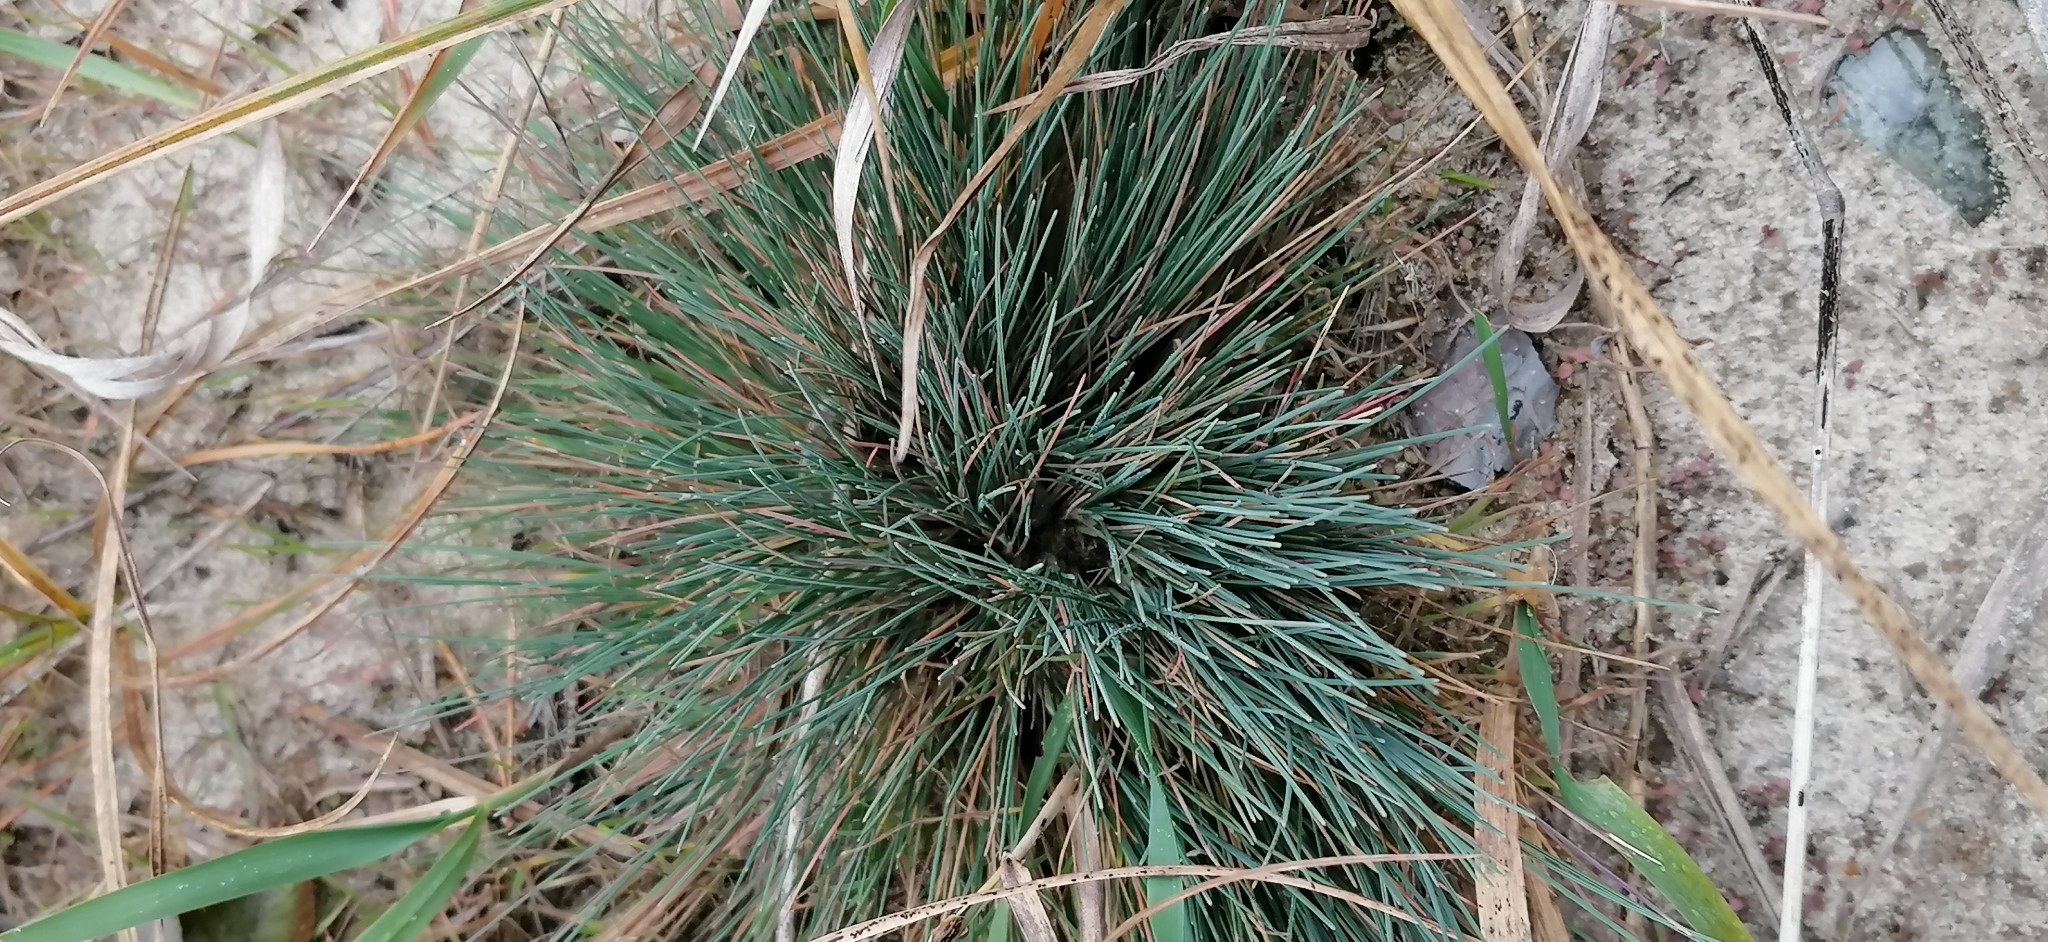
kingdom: Plantae
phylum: Tracheophyta
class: Liliopsida
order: Poales
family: Poaceae
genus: Corynephorus
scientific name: Corynephorus canescens
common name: Grey hair-grass
